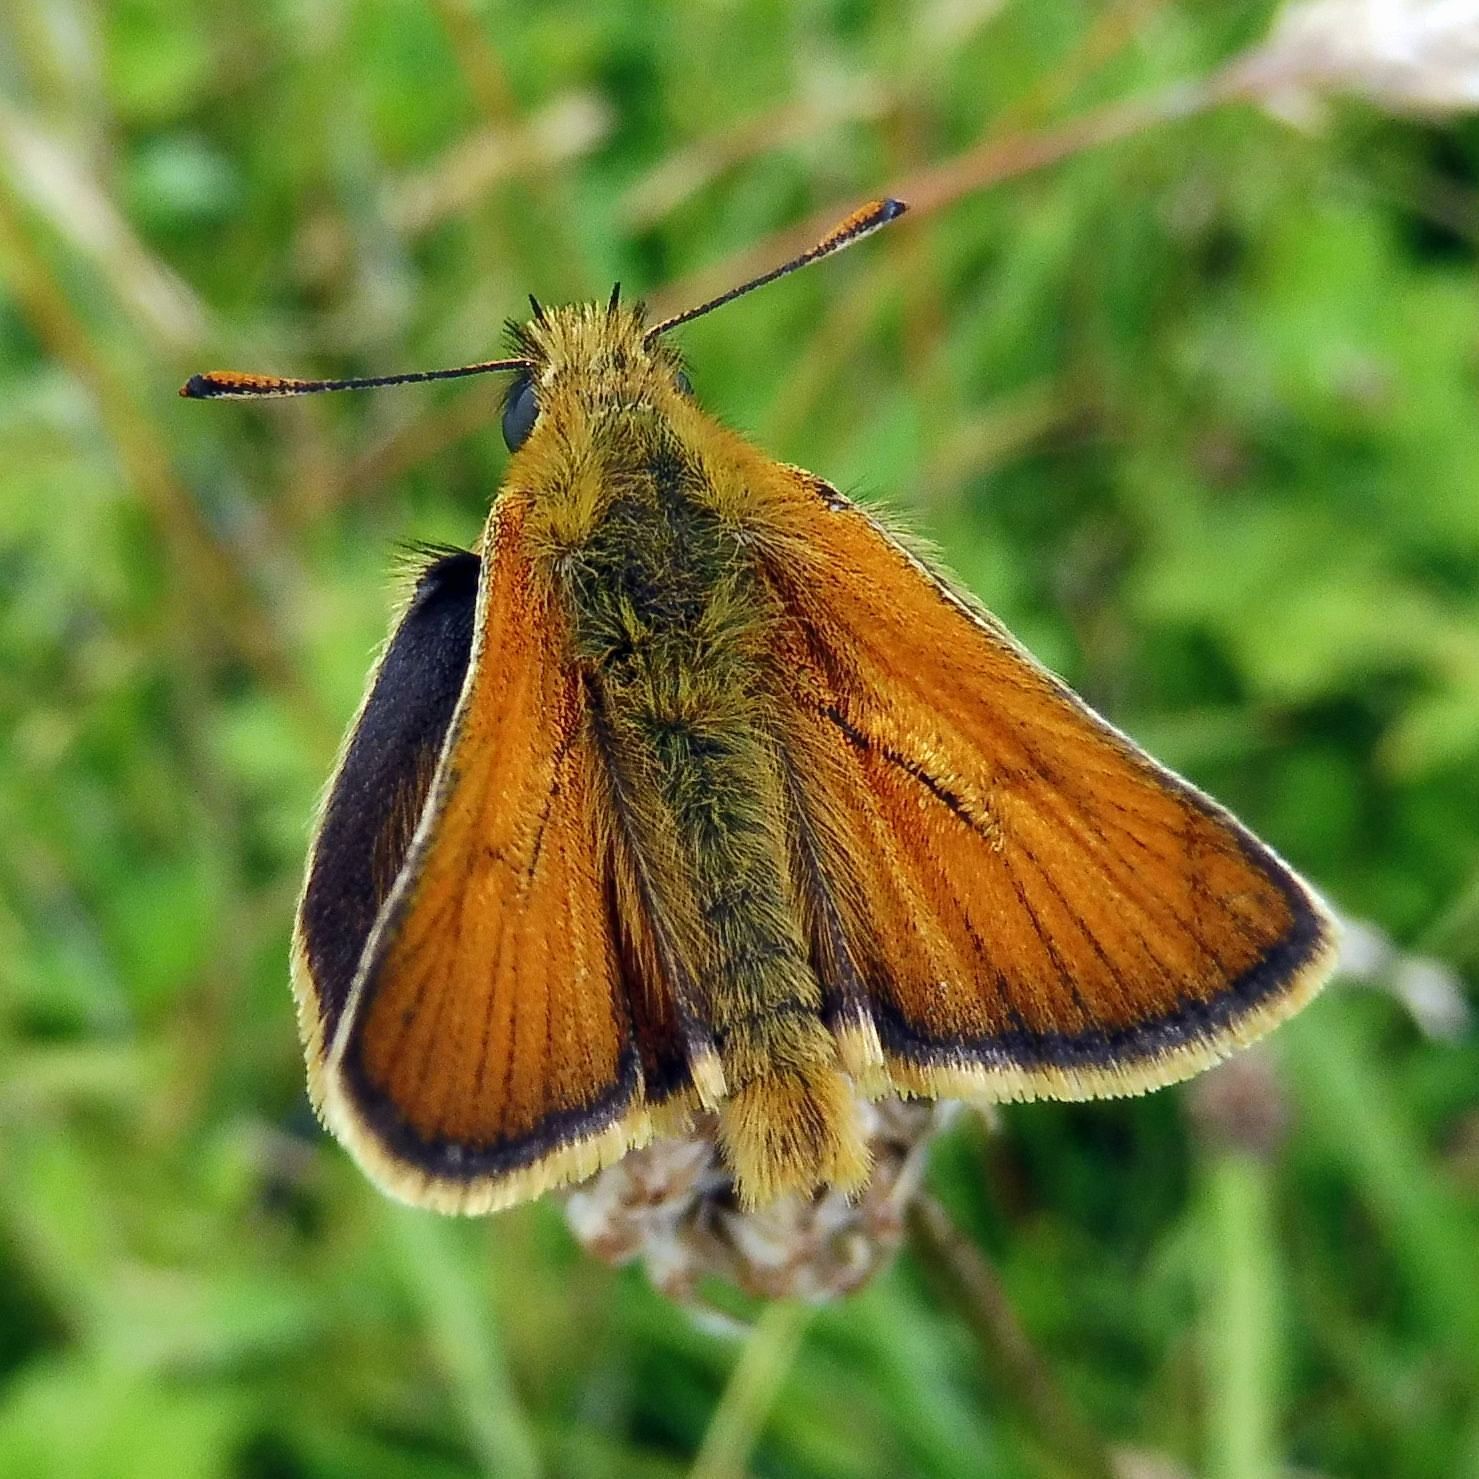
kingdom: Animalia
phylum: Arthropoda
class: Insecta
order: Lepidoptera
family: Hesperiidae
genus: Thymelicus
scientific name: Thymelicus sylvestris
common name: Small skipper
